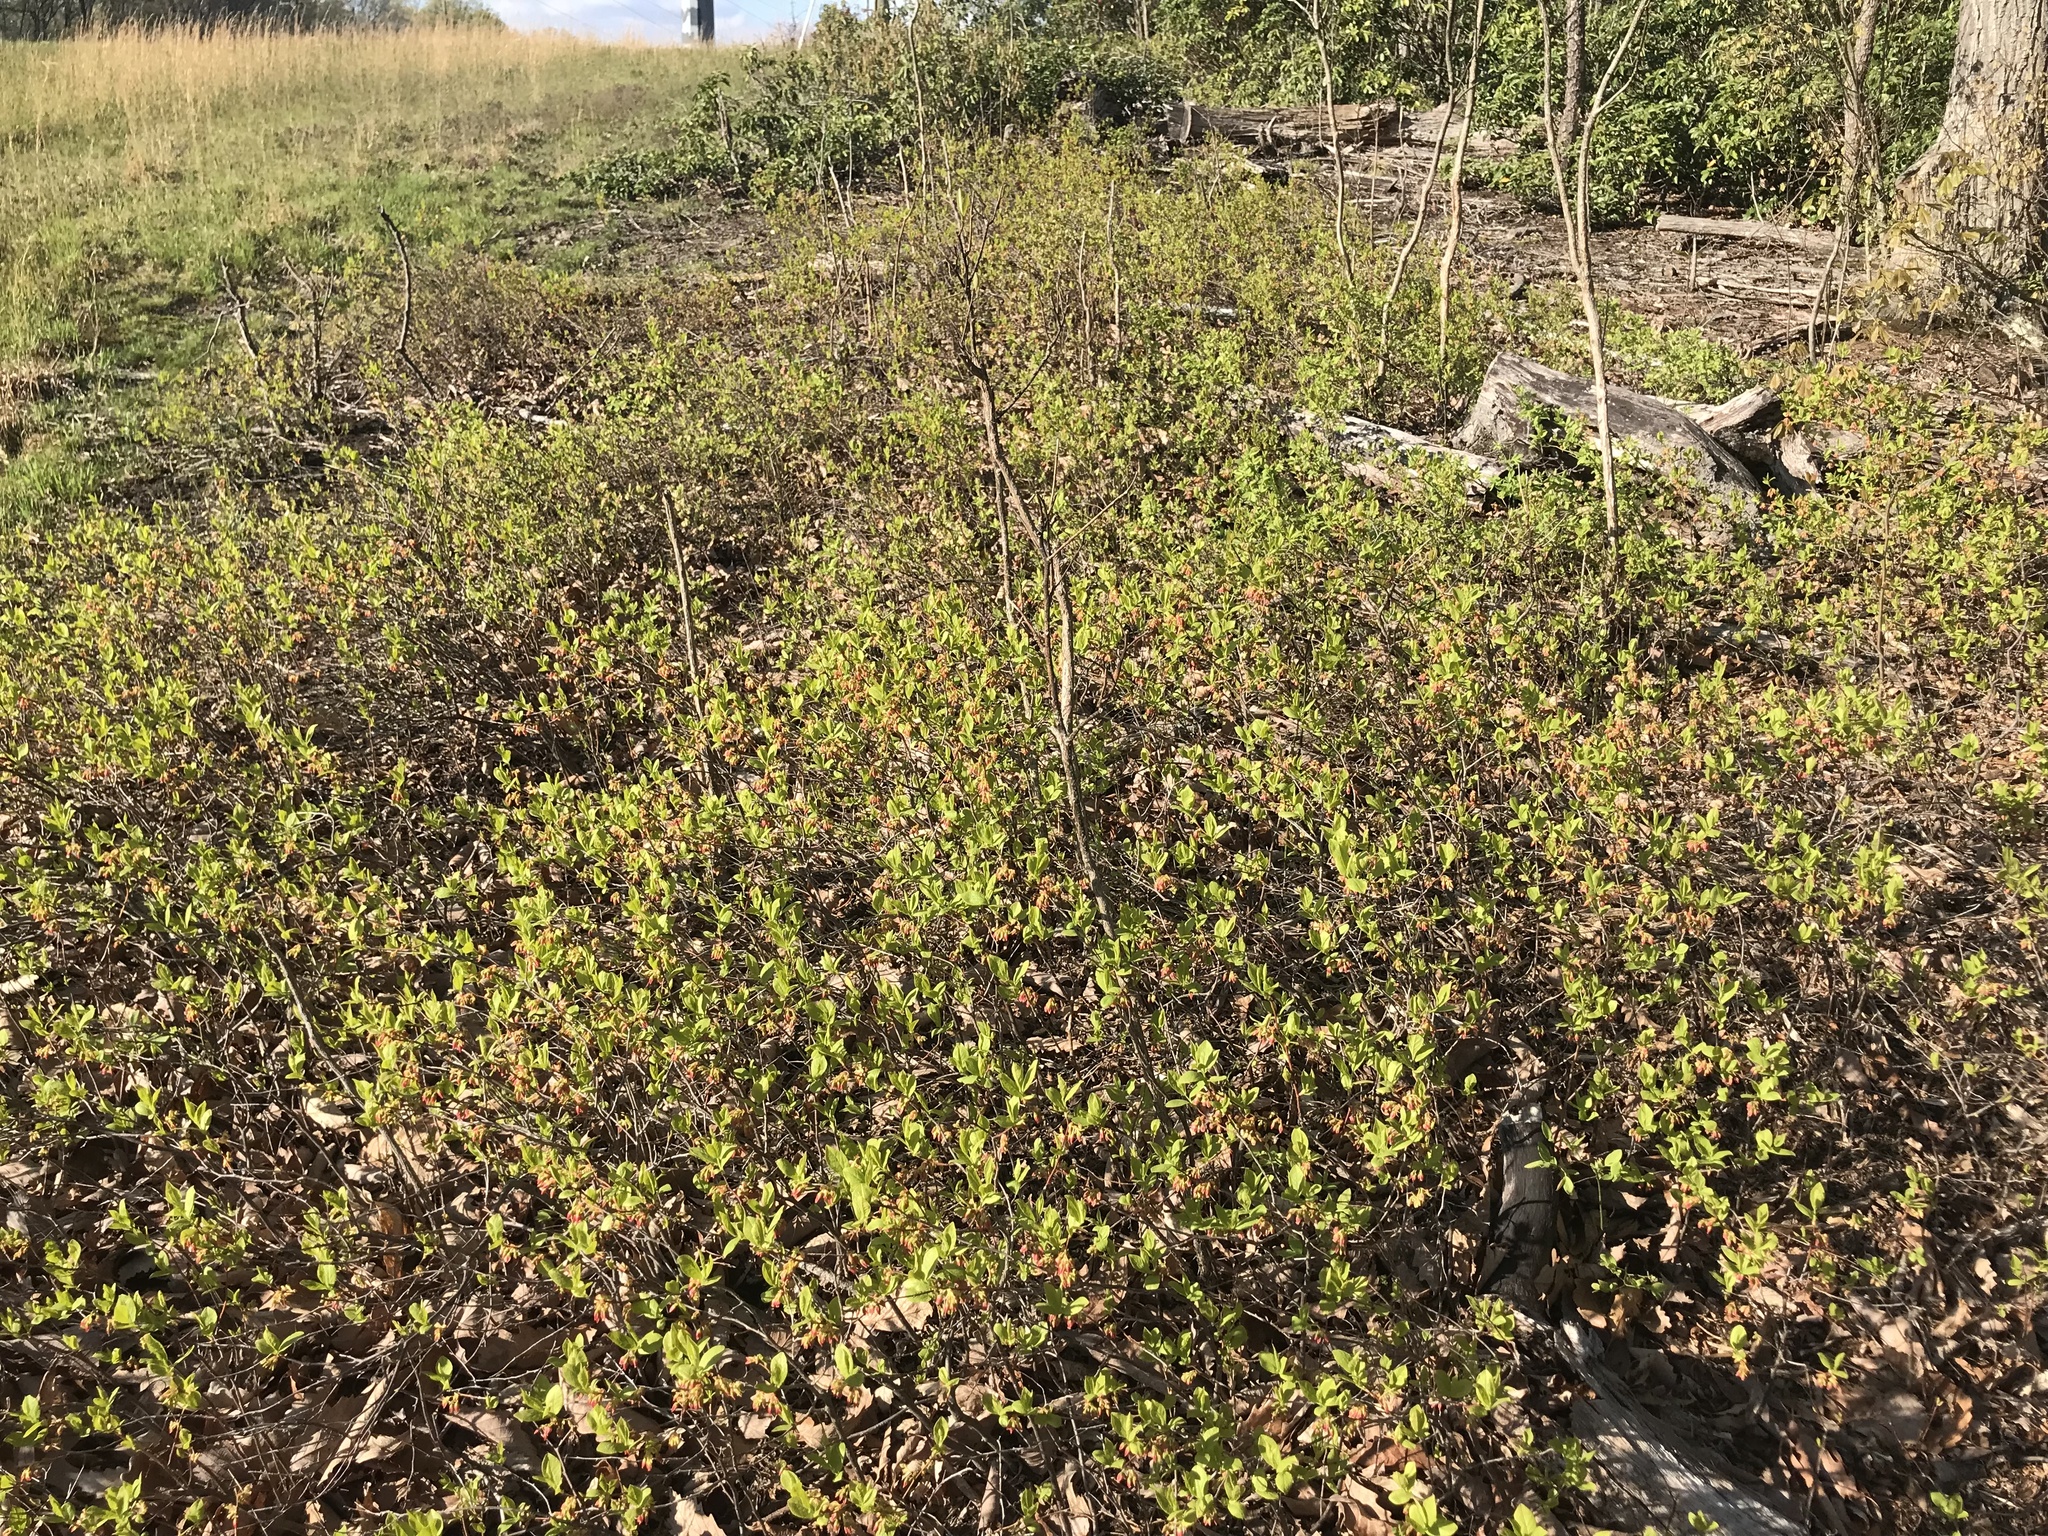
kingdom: Plantae
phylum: Tracheophyta
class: Magnoliopsida
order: Ericales
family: Ericaceae
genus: Gaylussacia
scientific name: Gaylussacia baccata
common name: Black huckleberry
